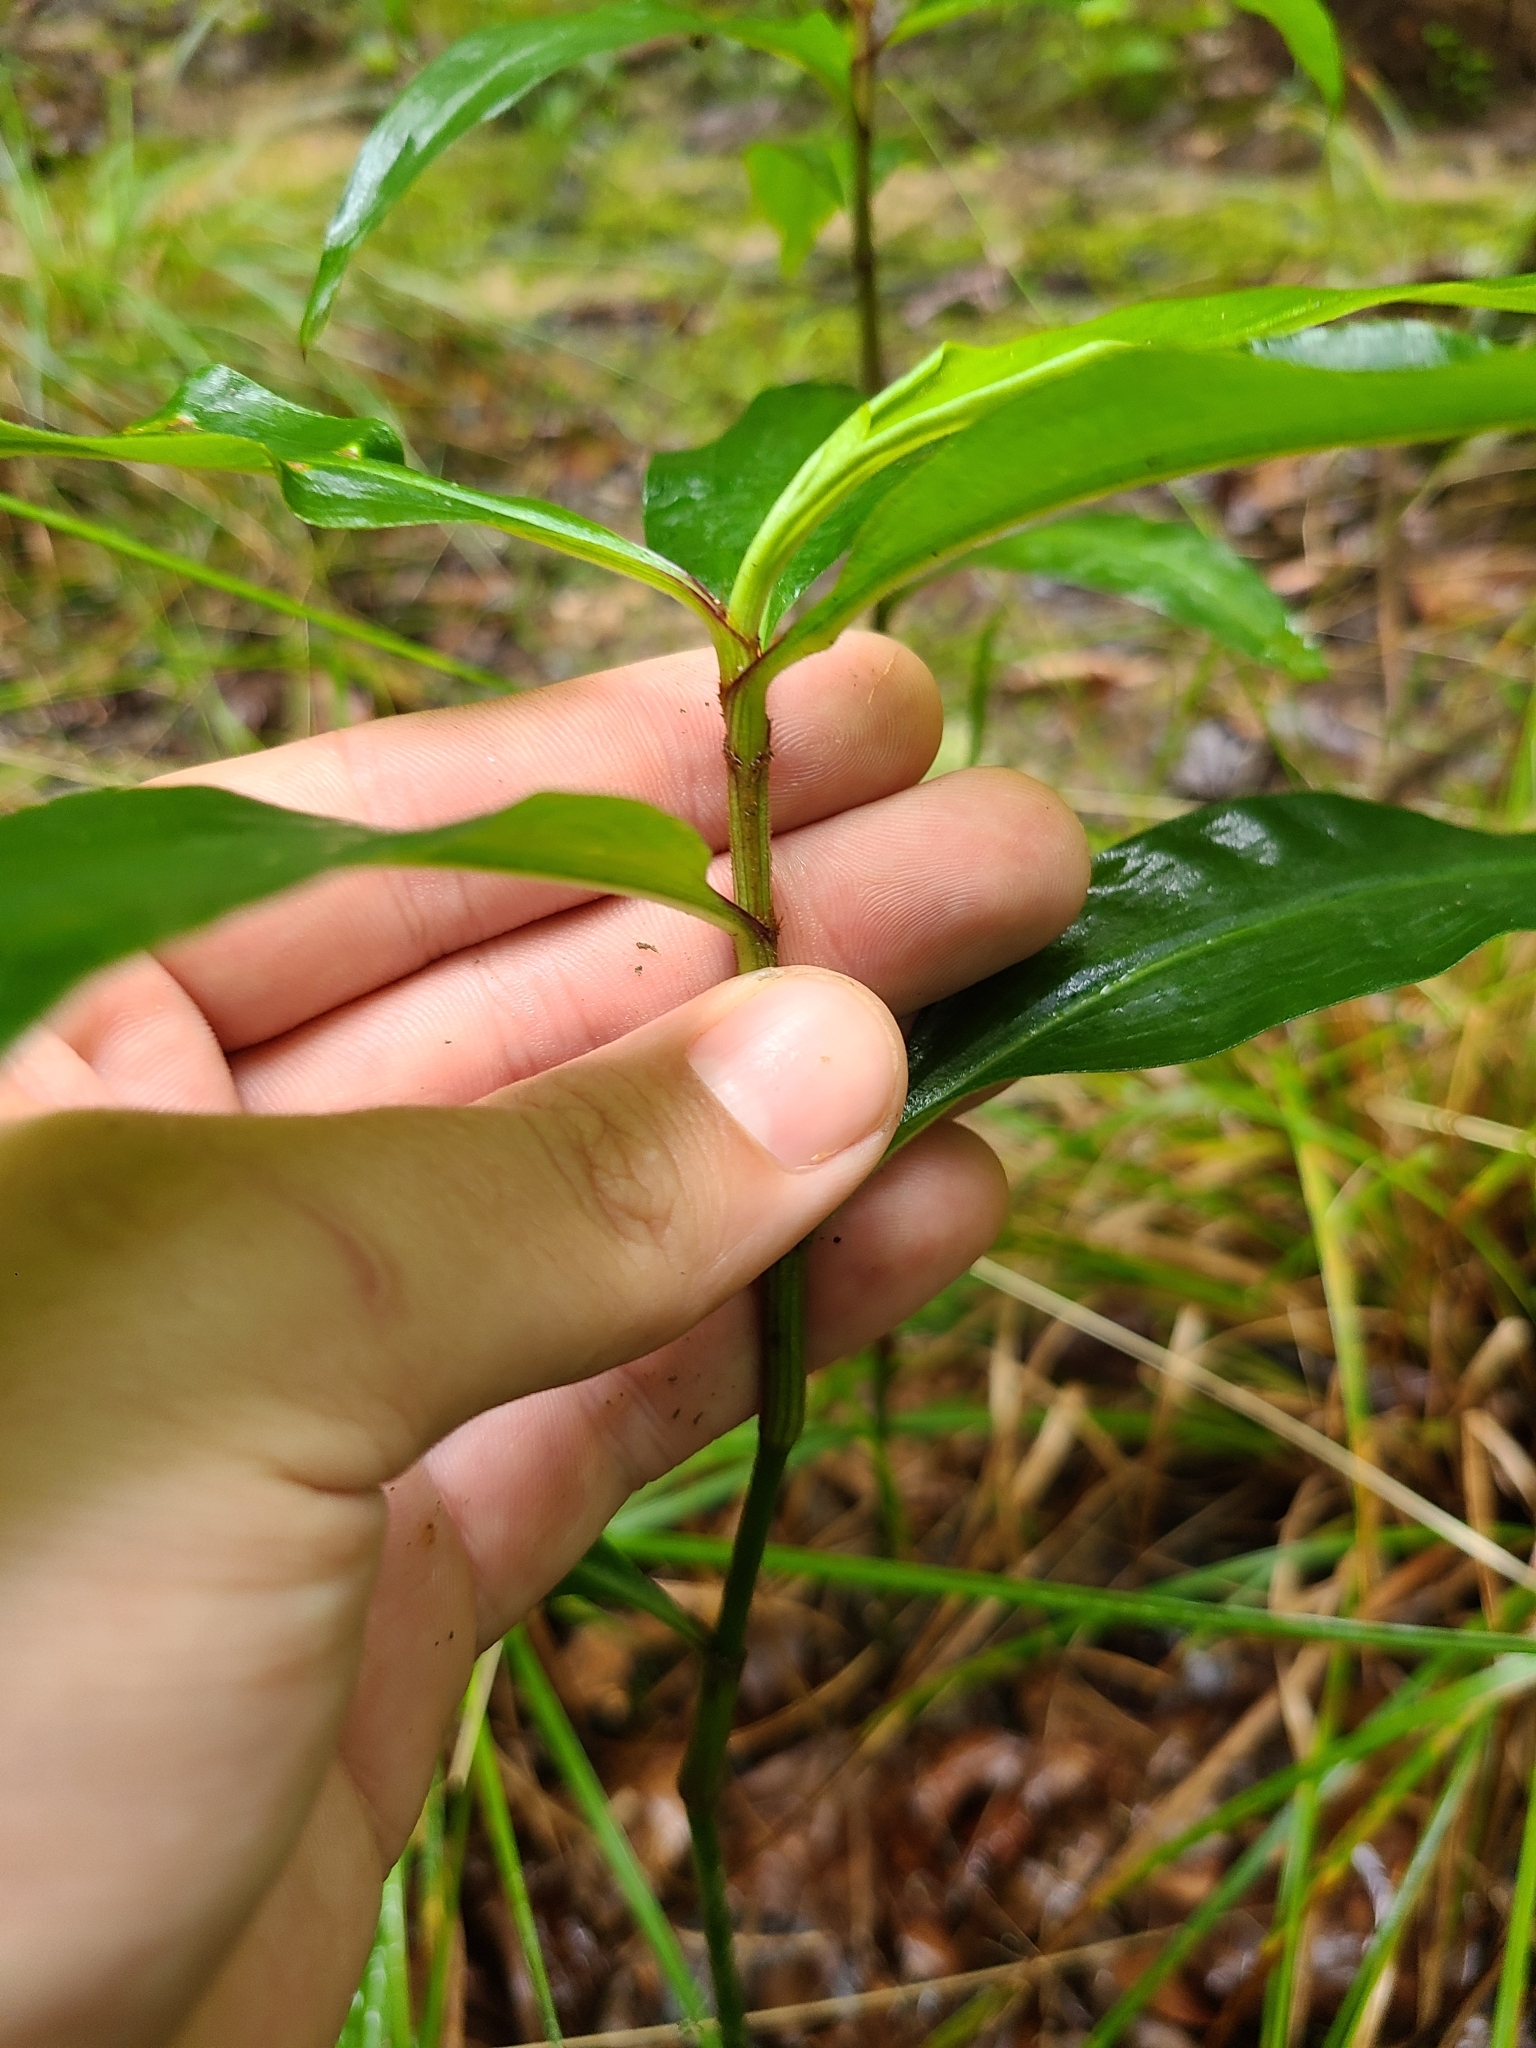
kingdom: Plantae
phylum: Tracheophyta
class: Liliopsida
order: Commelinales
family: Commelinaceae
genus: Commelina
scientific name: Commelina virginica
